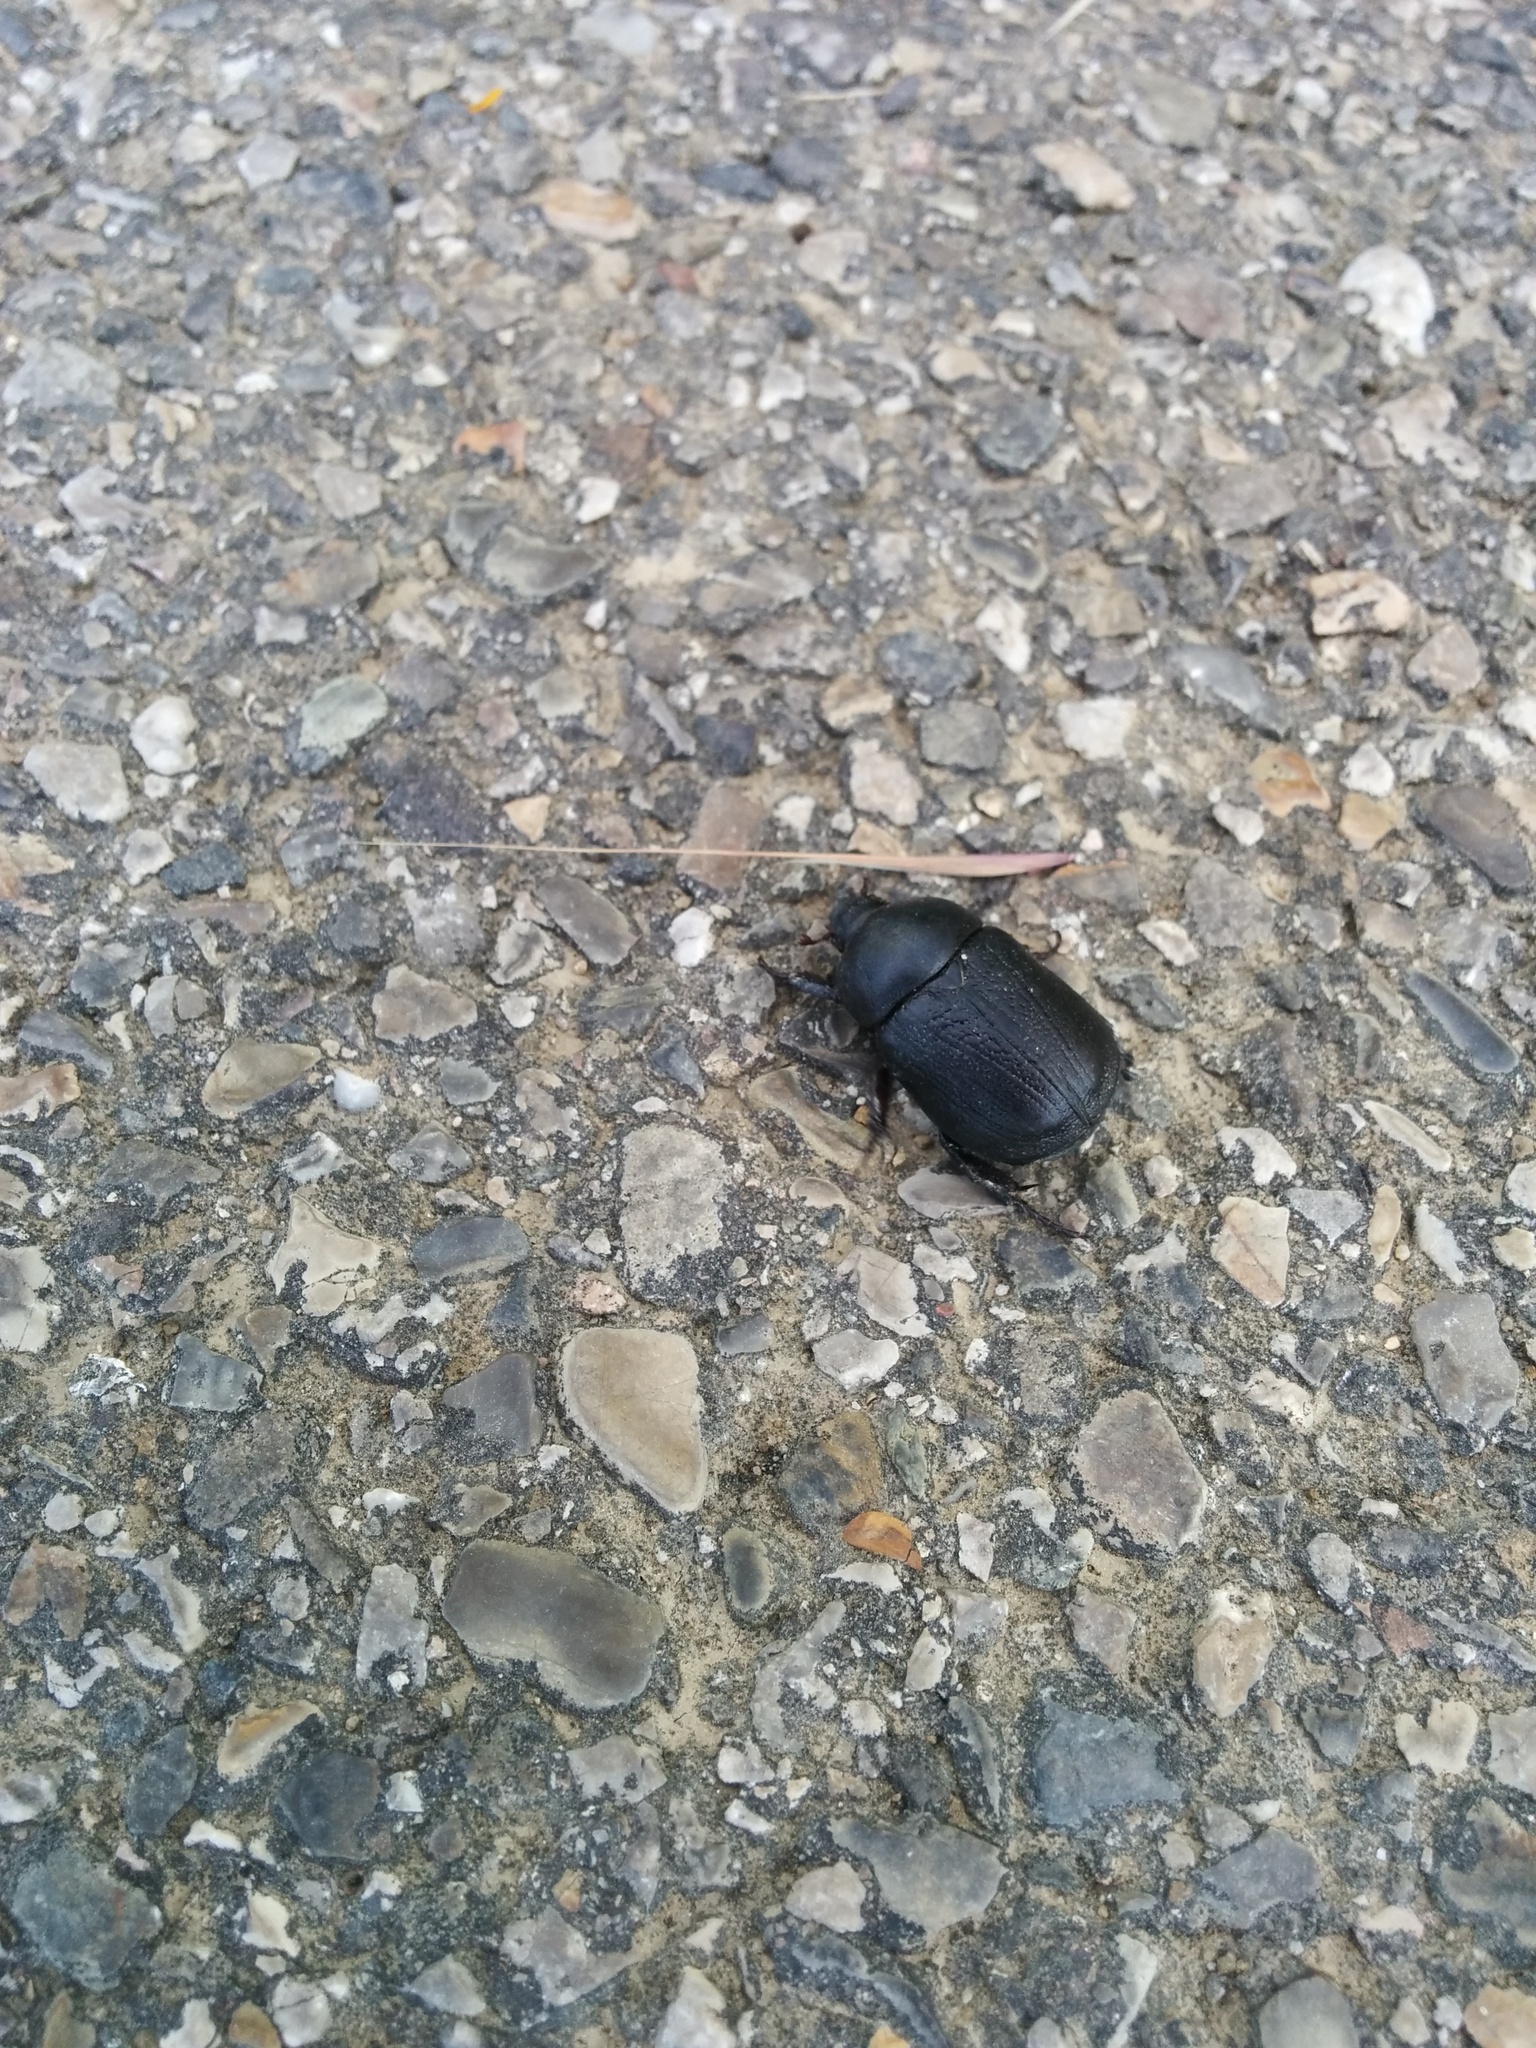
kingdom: Animalia
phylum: Arthropoda
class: Insecta
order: Coleoptera
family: Scarabaeidae
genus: Pentodon
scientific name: Pentodon bidens
